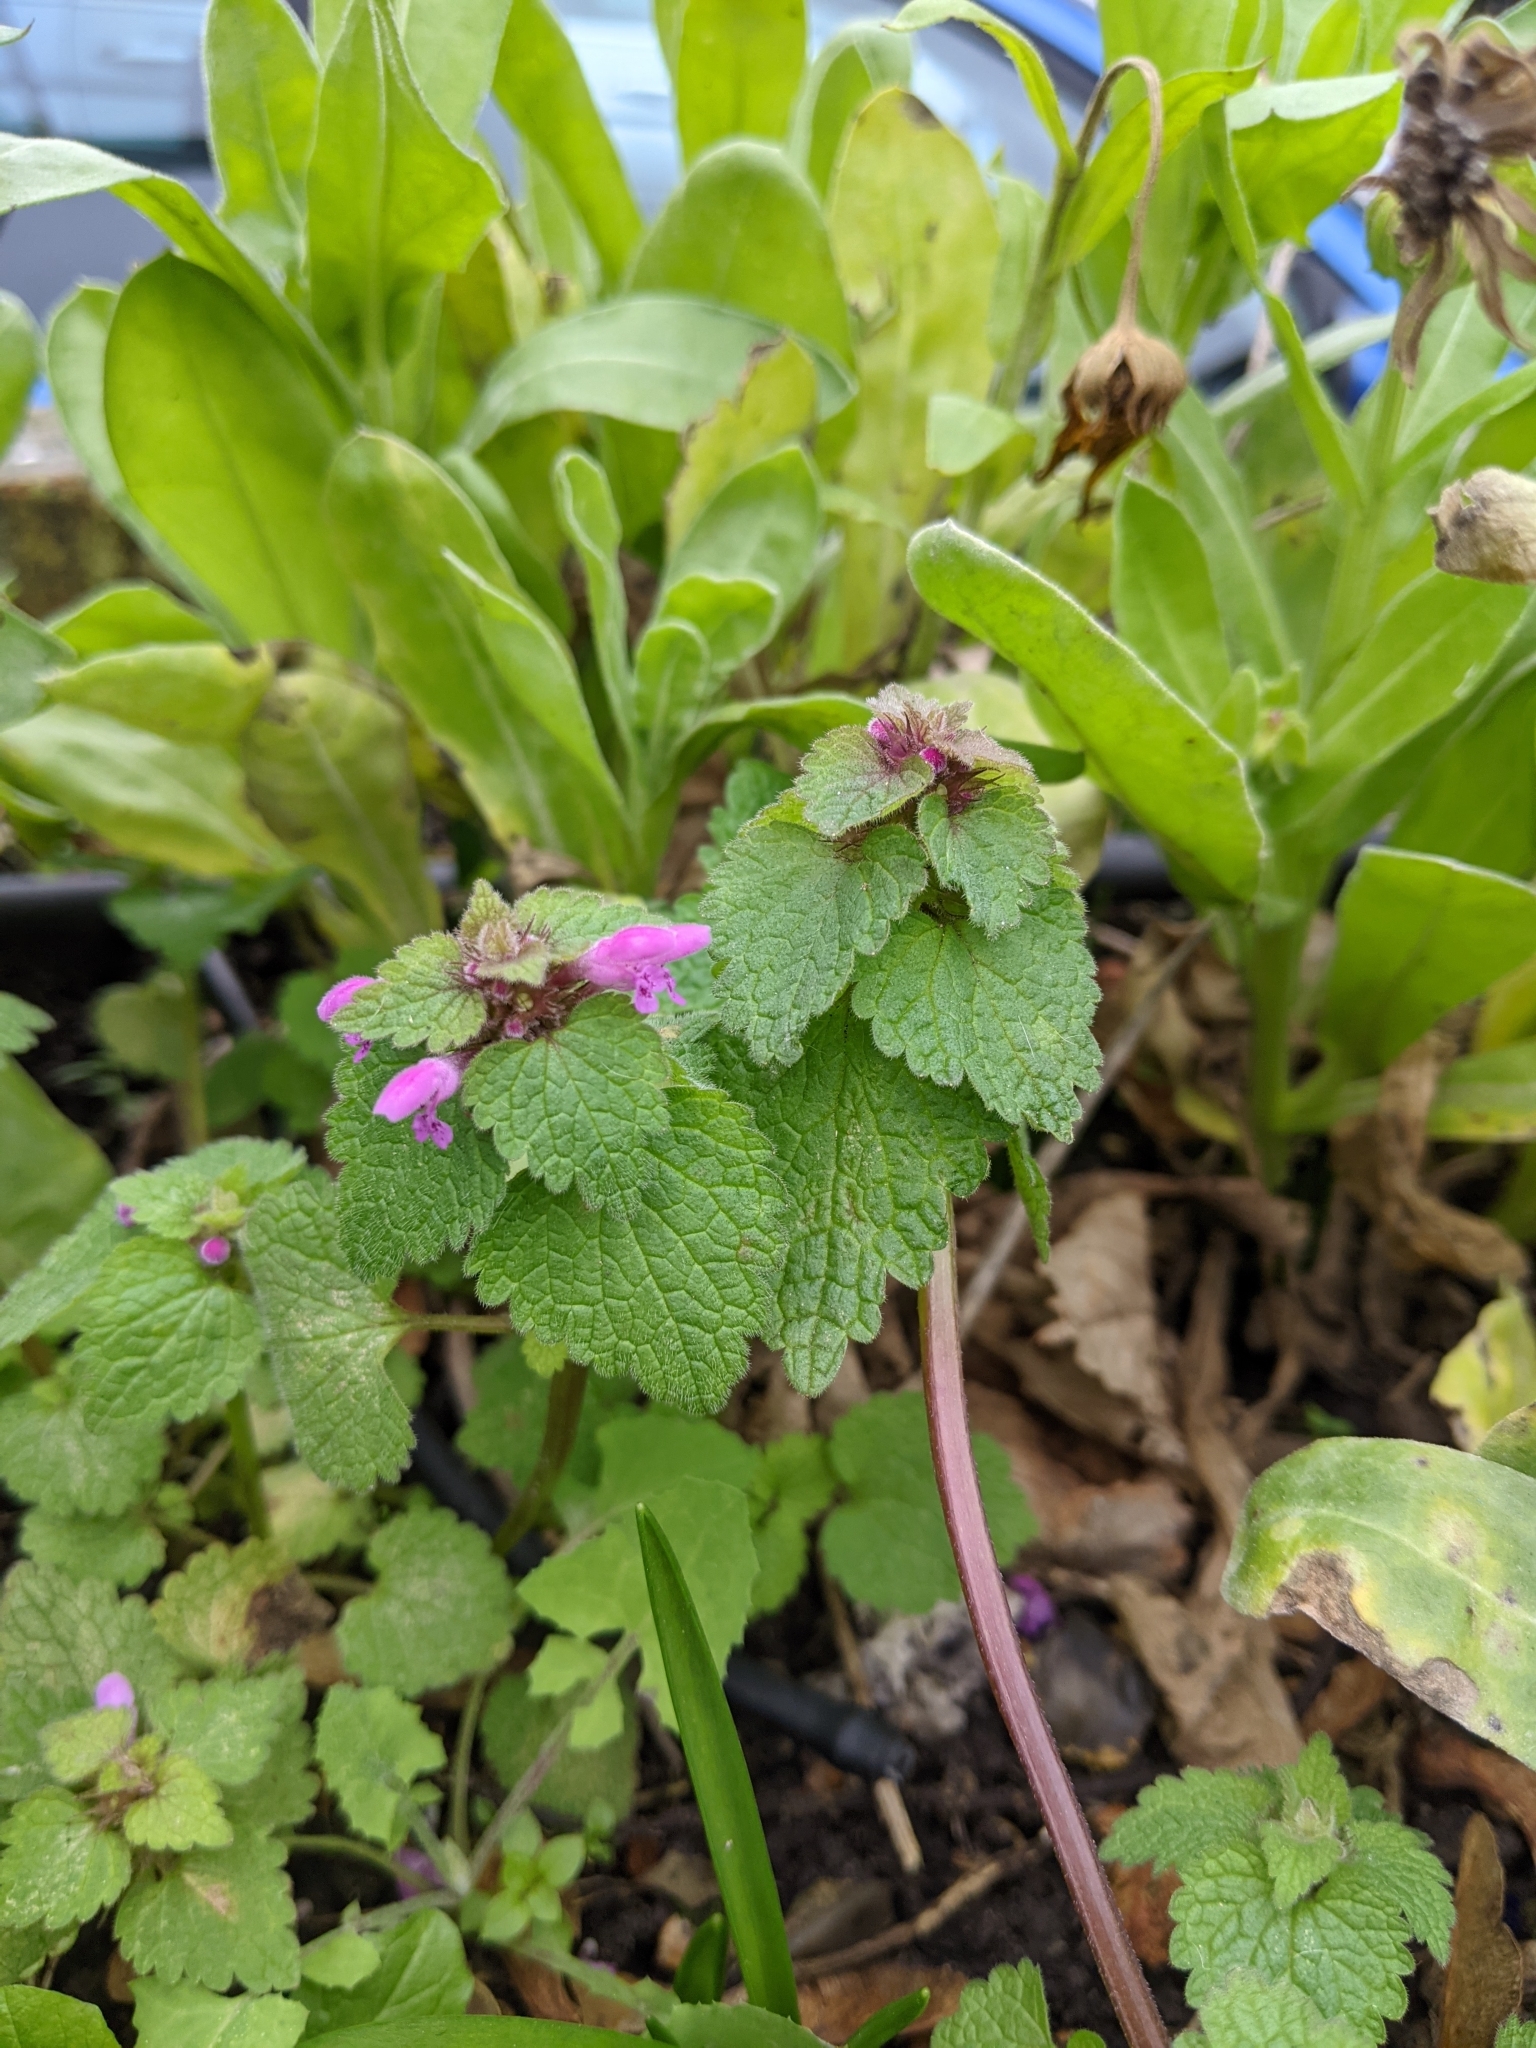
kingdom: Plantae
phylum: Tracheophyta
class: Magnoliopsida
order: Lamiales
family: Lamiaceae
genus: Lamium
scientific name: Lamium purpureum
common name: Red dead-nettle
